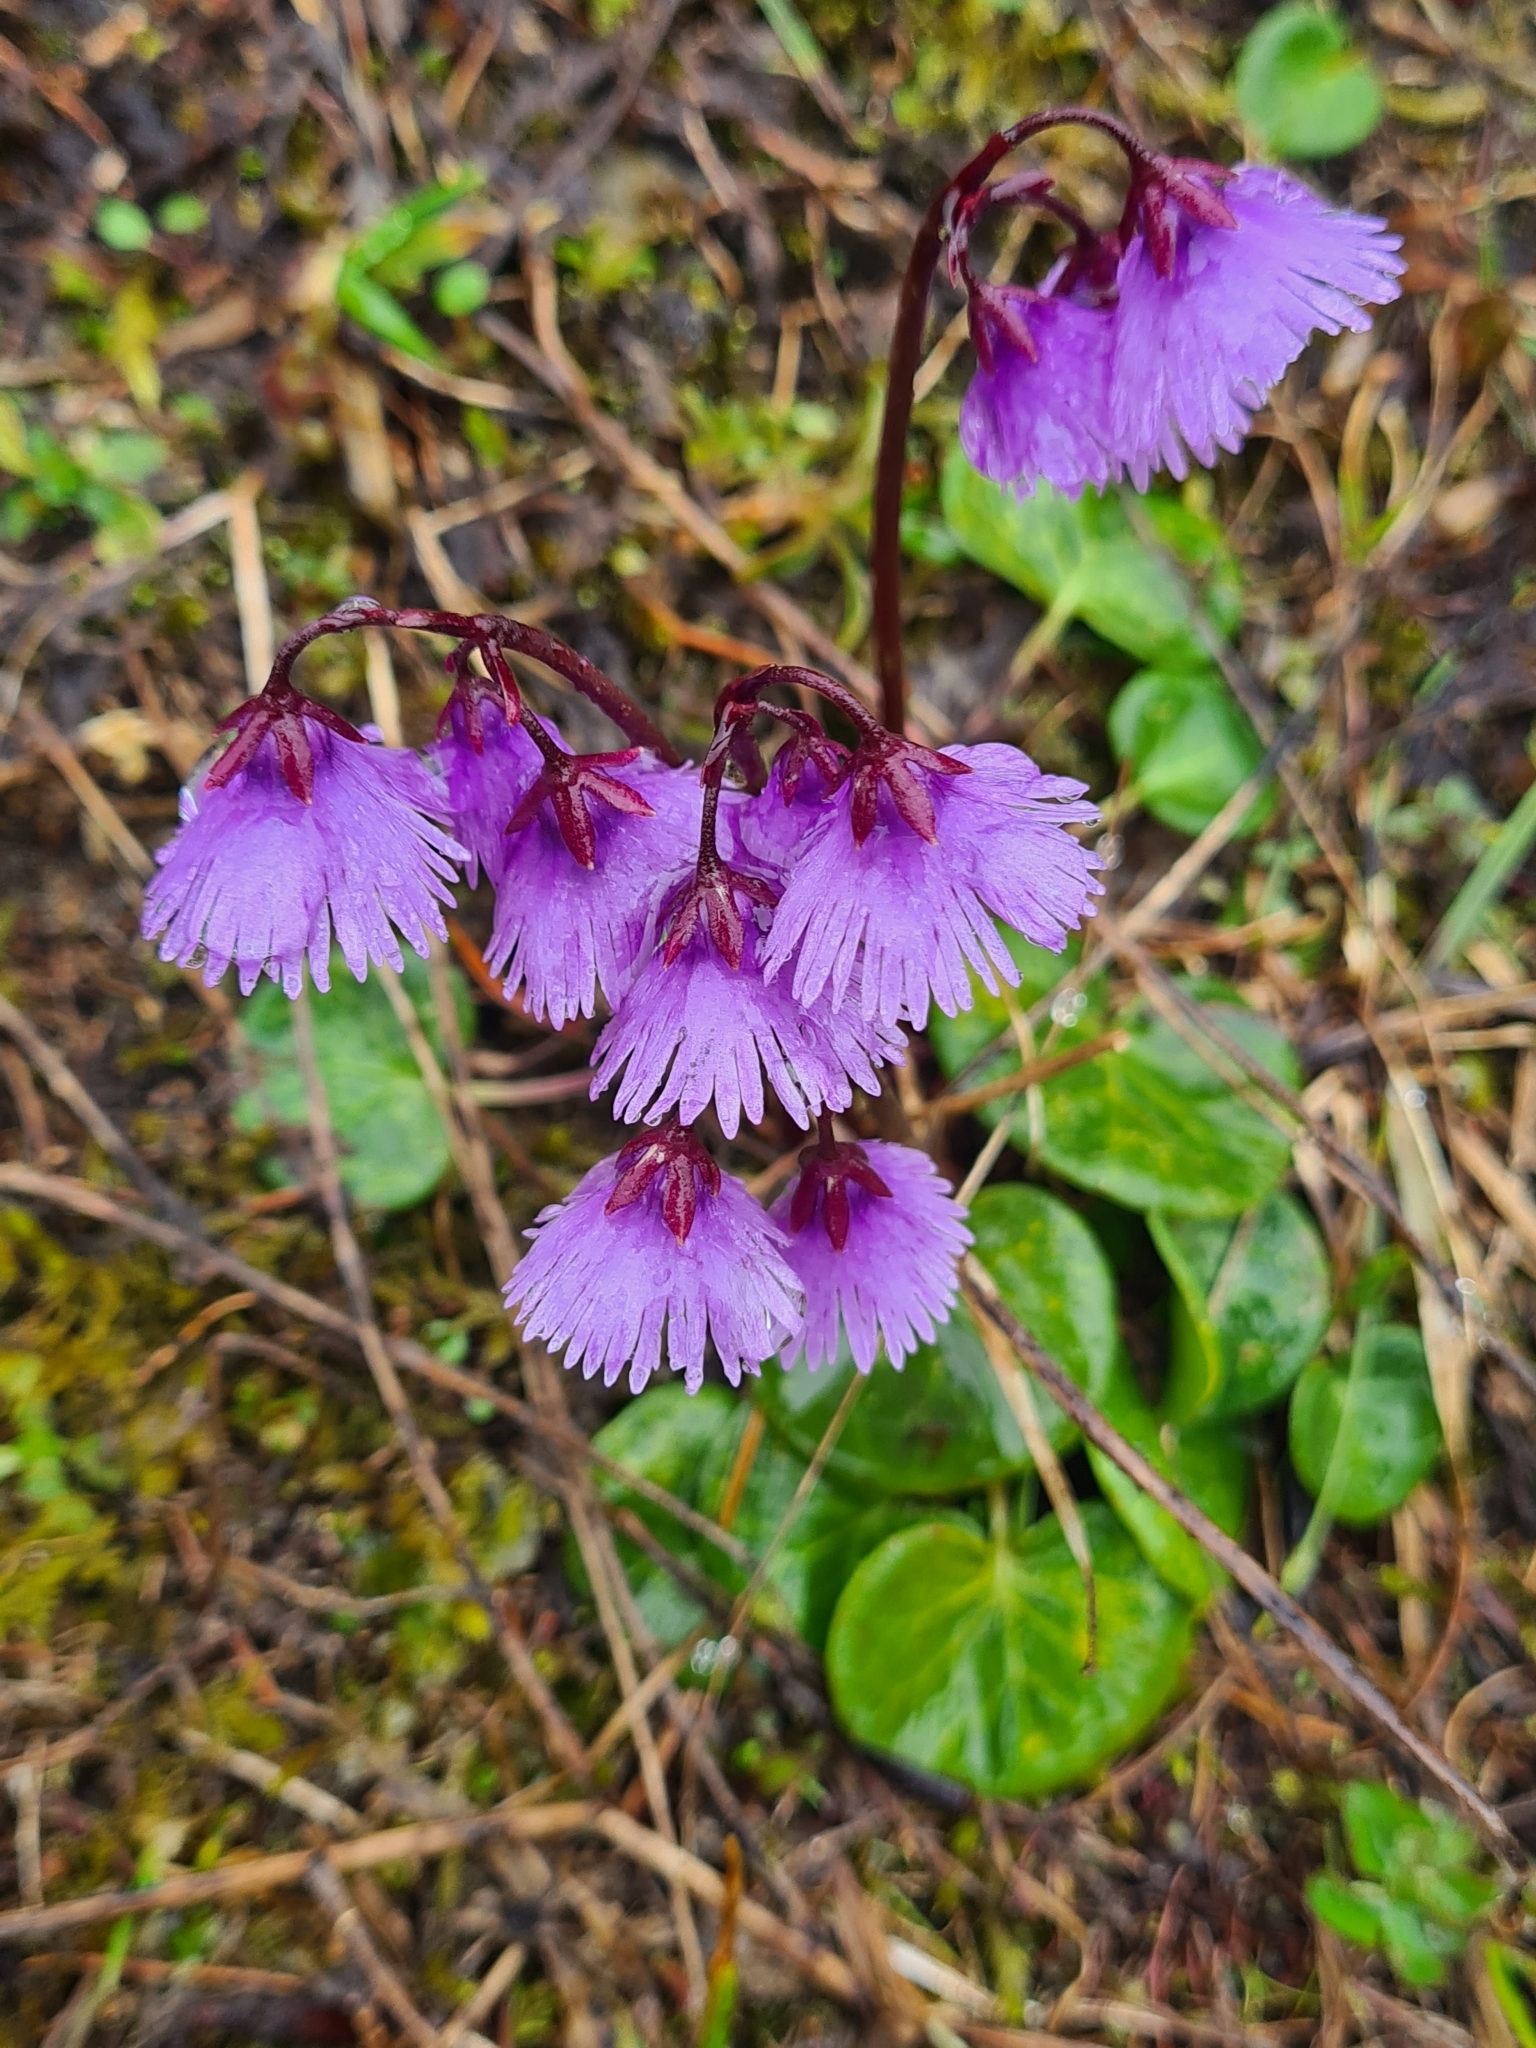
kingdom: Plantae
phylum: Tracheophyta
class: Magnoliopsida
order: Ericales
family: Primulaceae
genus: Soldanella
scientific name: Soldanella alpina
